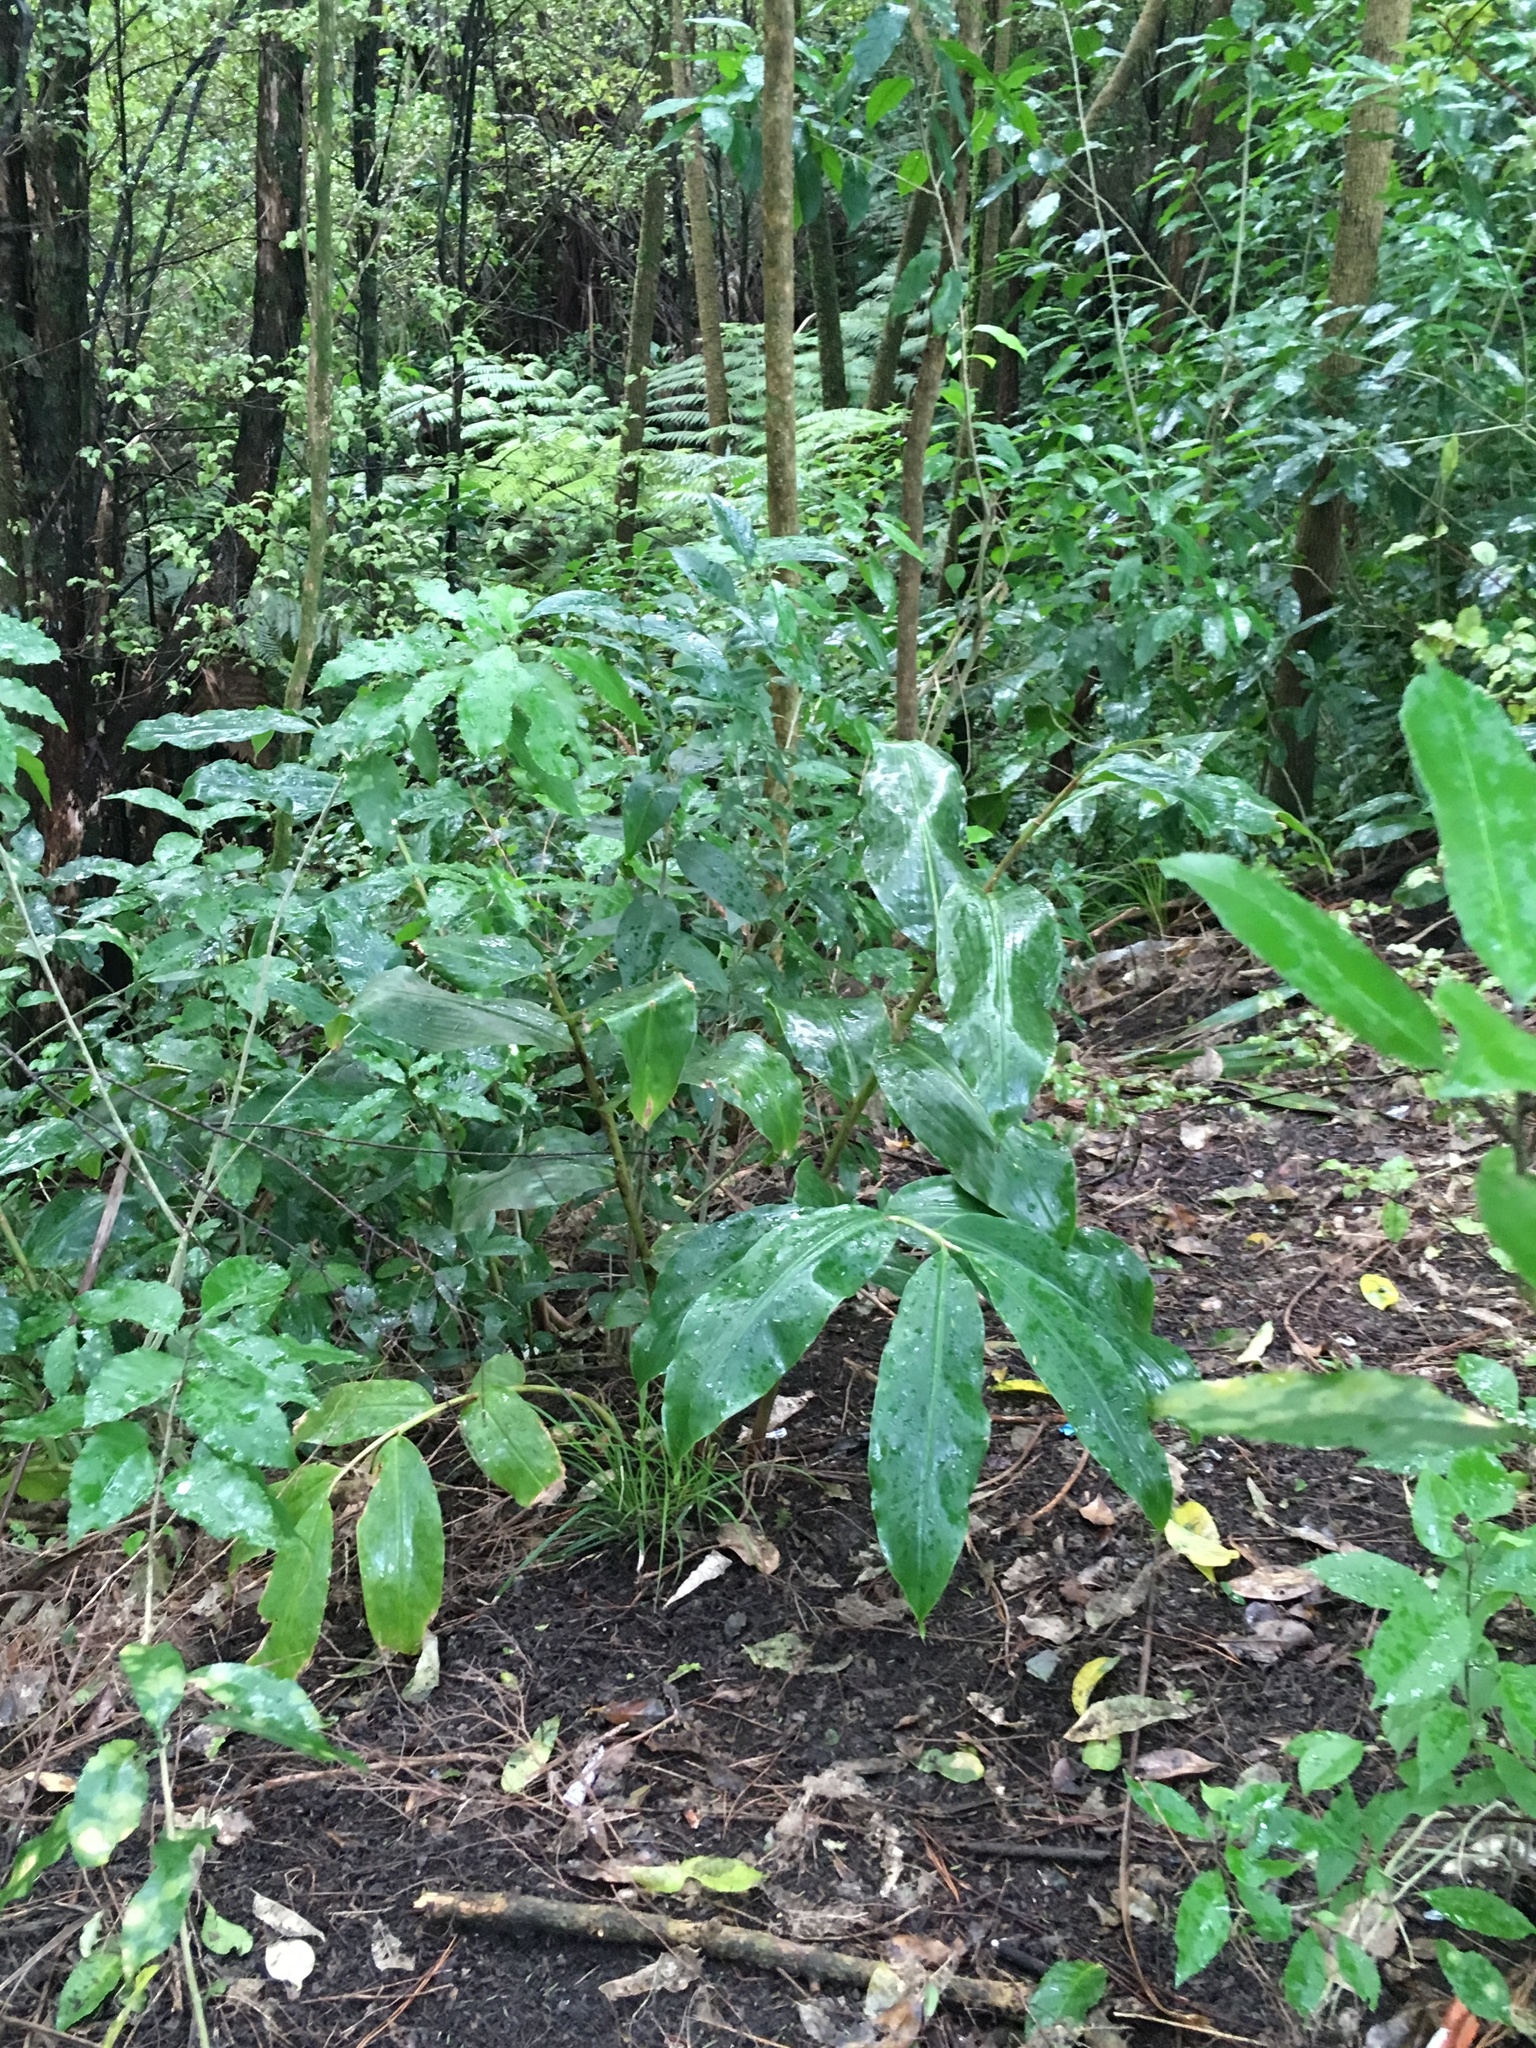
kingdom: Plantae
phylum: Tracheophyta
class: Liliopsida
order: Zingiberales
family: Zingiberaceae
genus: Hedychium
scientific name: Hedychium gardnerianum
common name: Himalayan ginger
